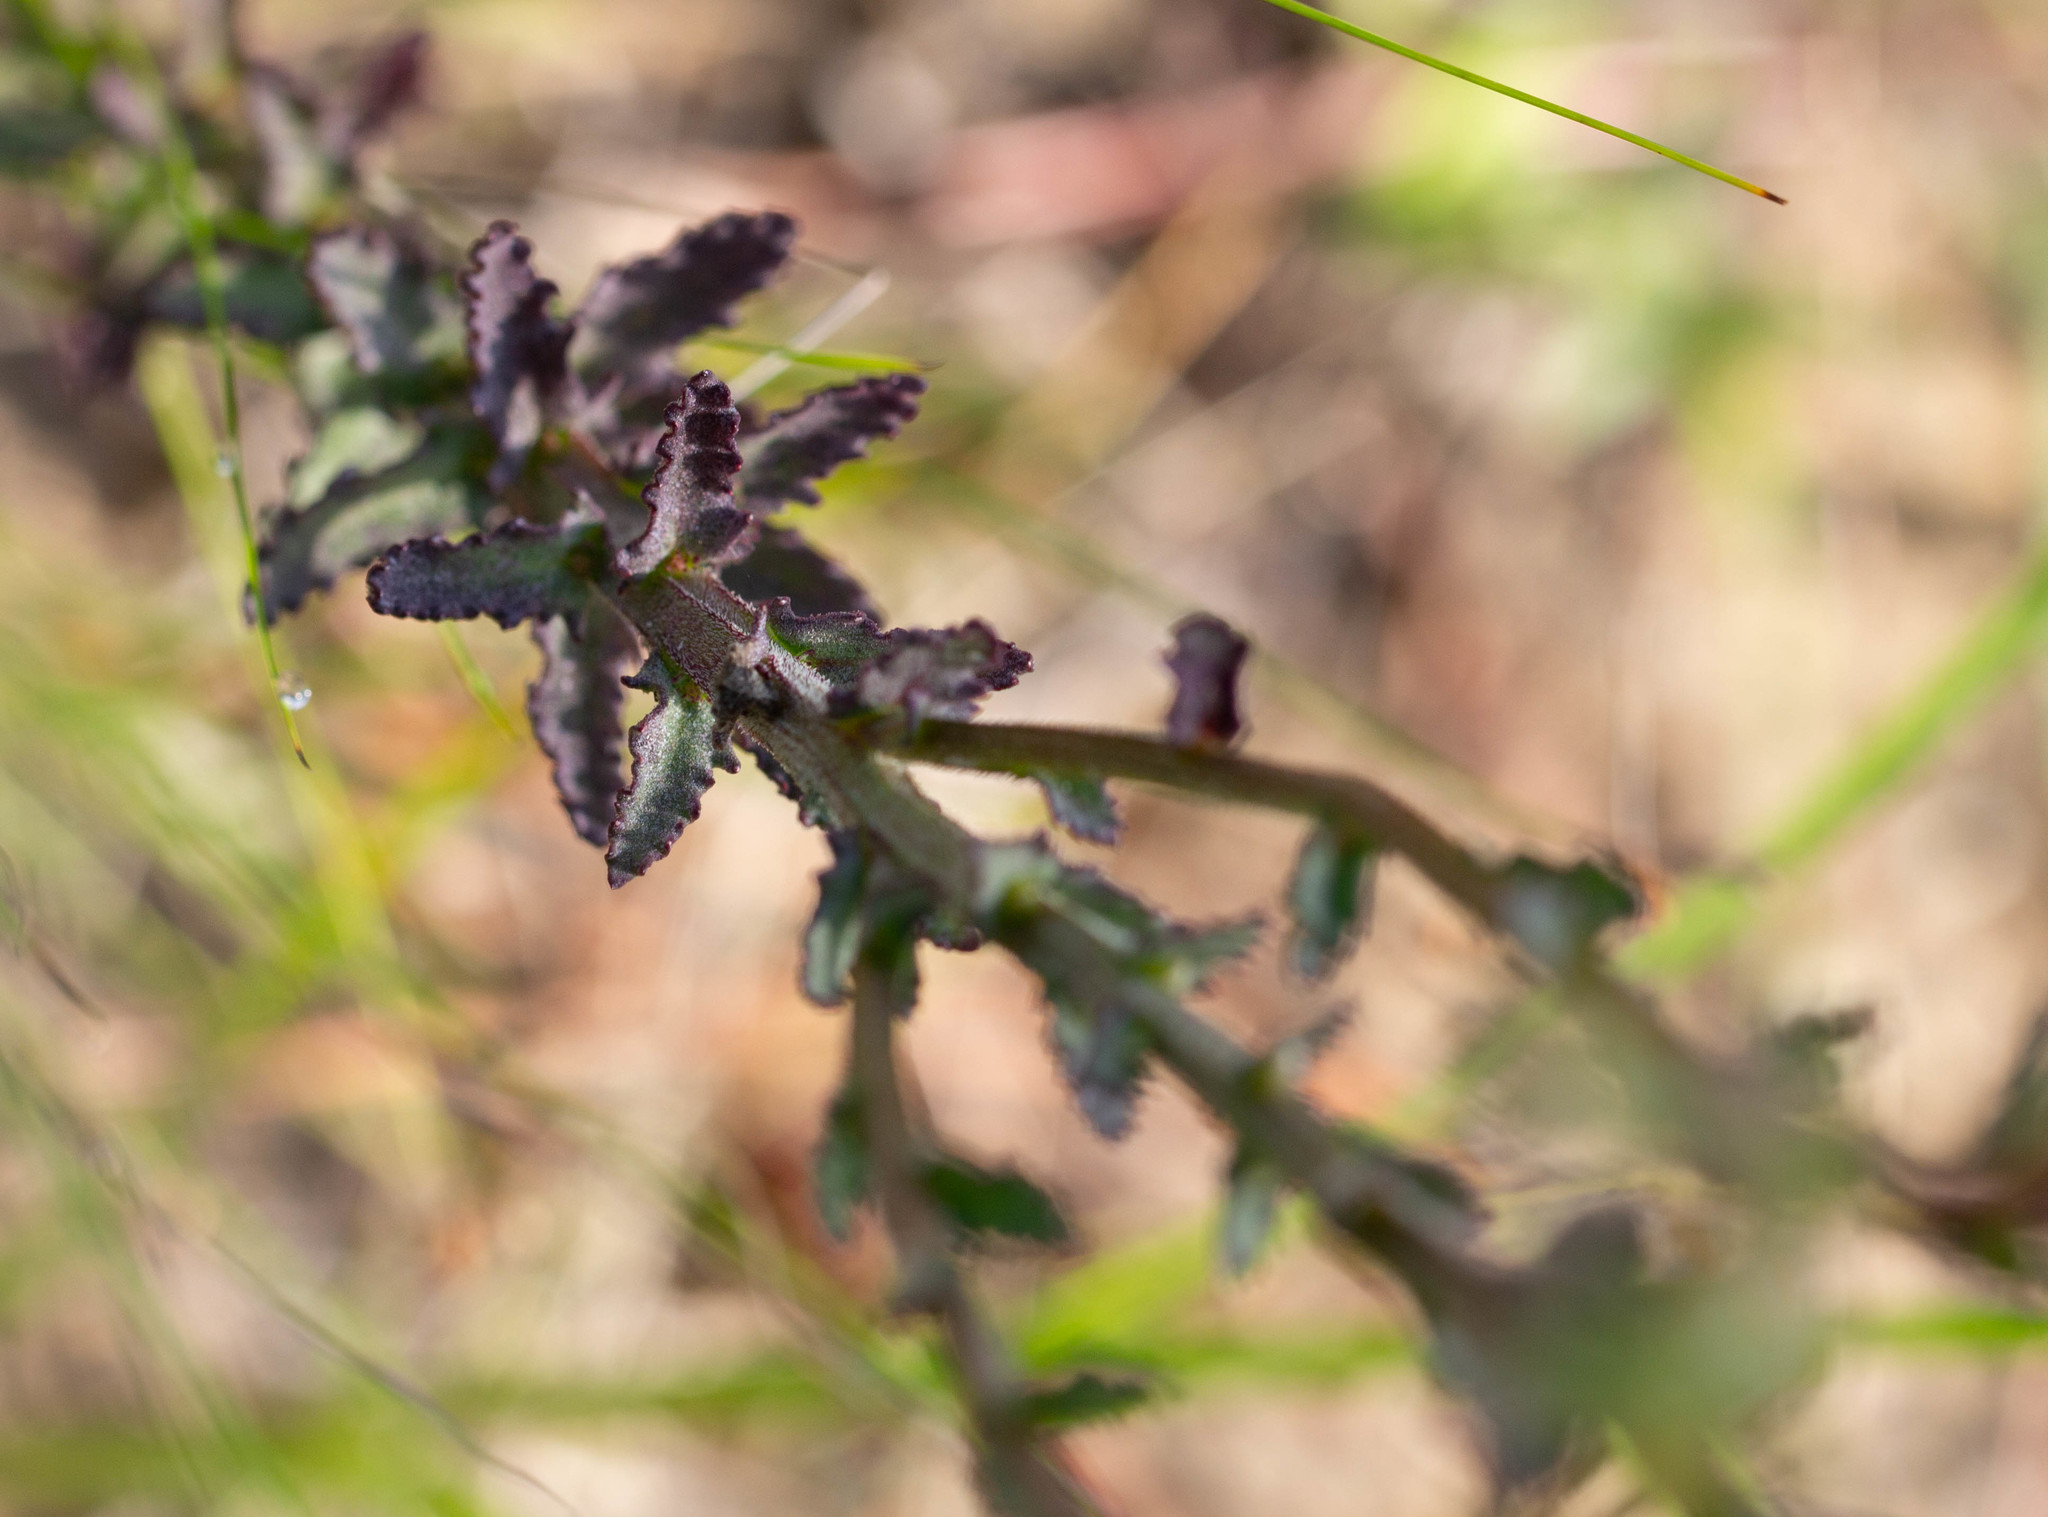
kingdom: Plantae
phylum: Tracheophyta
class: Magnoliopsida
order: Asterales
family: Campanulaceae
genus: Lobelia
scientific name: Lobelia brevifolia
